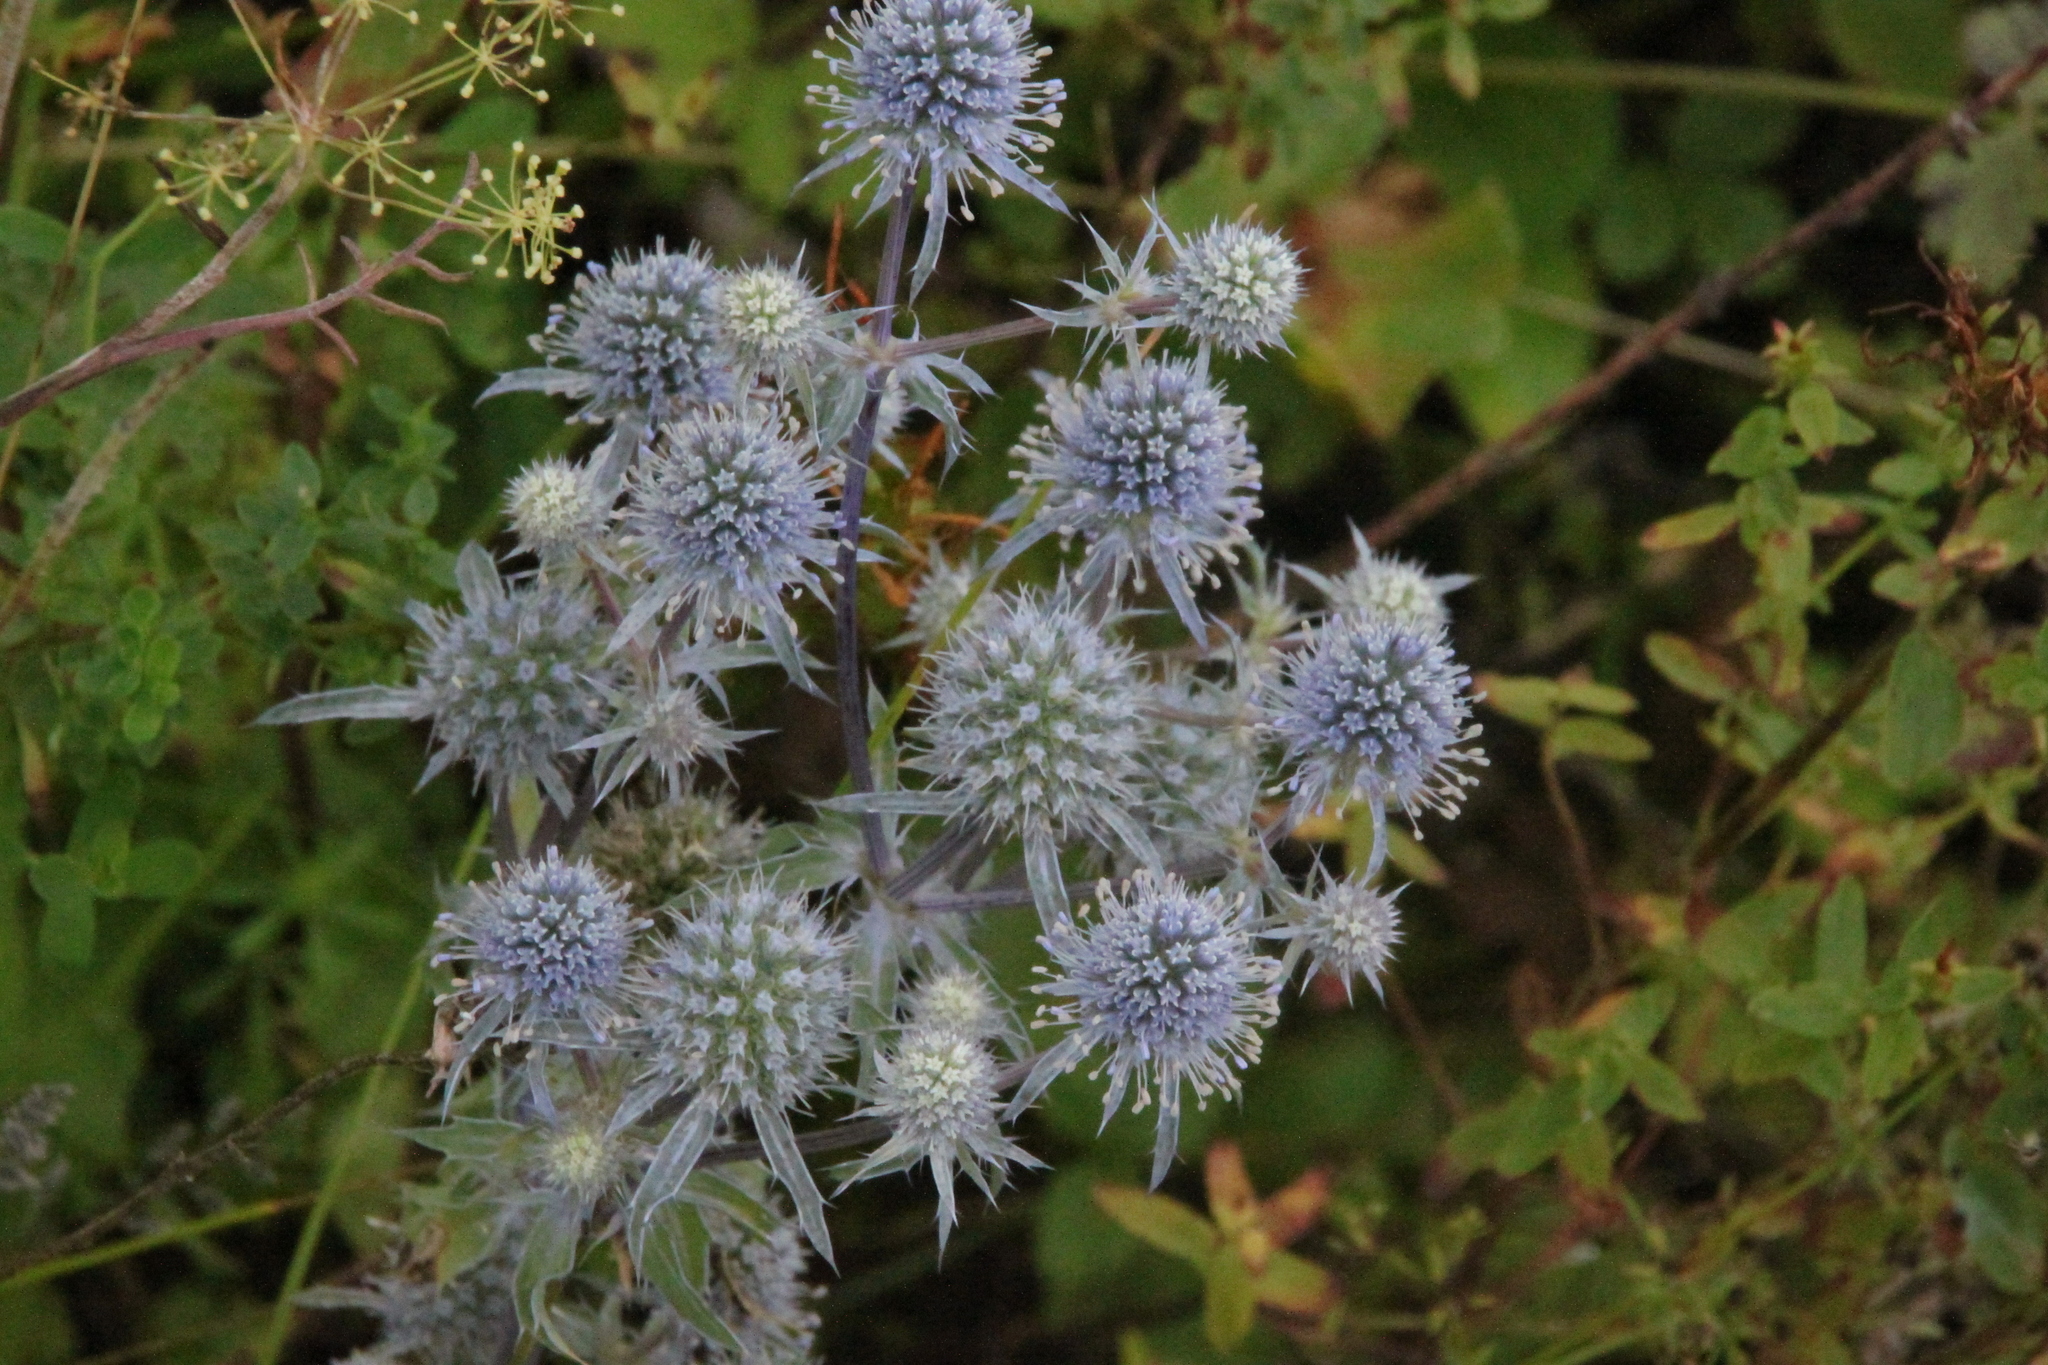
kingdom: Plantae
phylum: Tracheophyta
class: Magnoliopsida
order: Apiales
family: Apiaceae
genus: Eryngium
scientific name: Eryngium planum
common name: Blue eryngo
